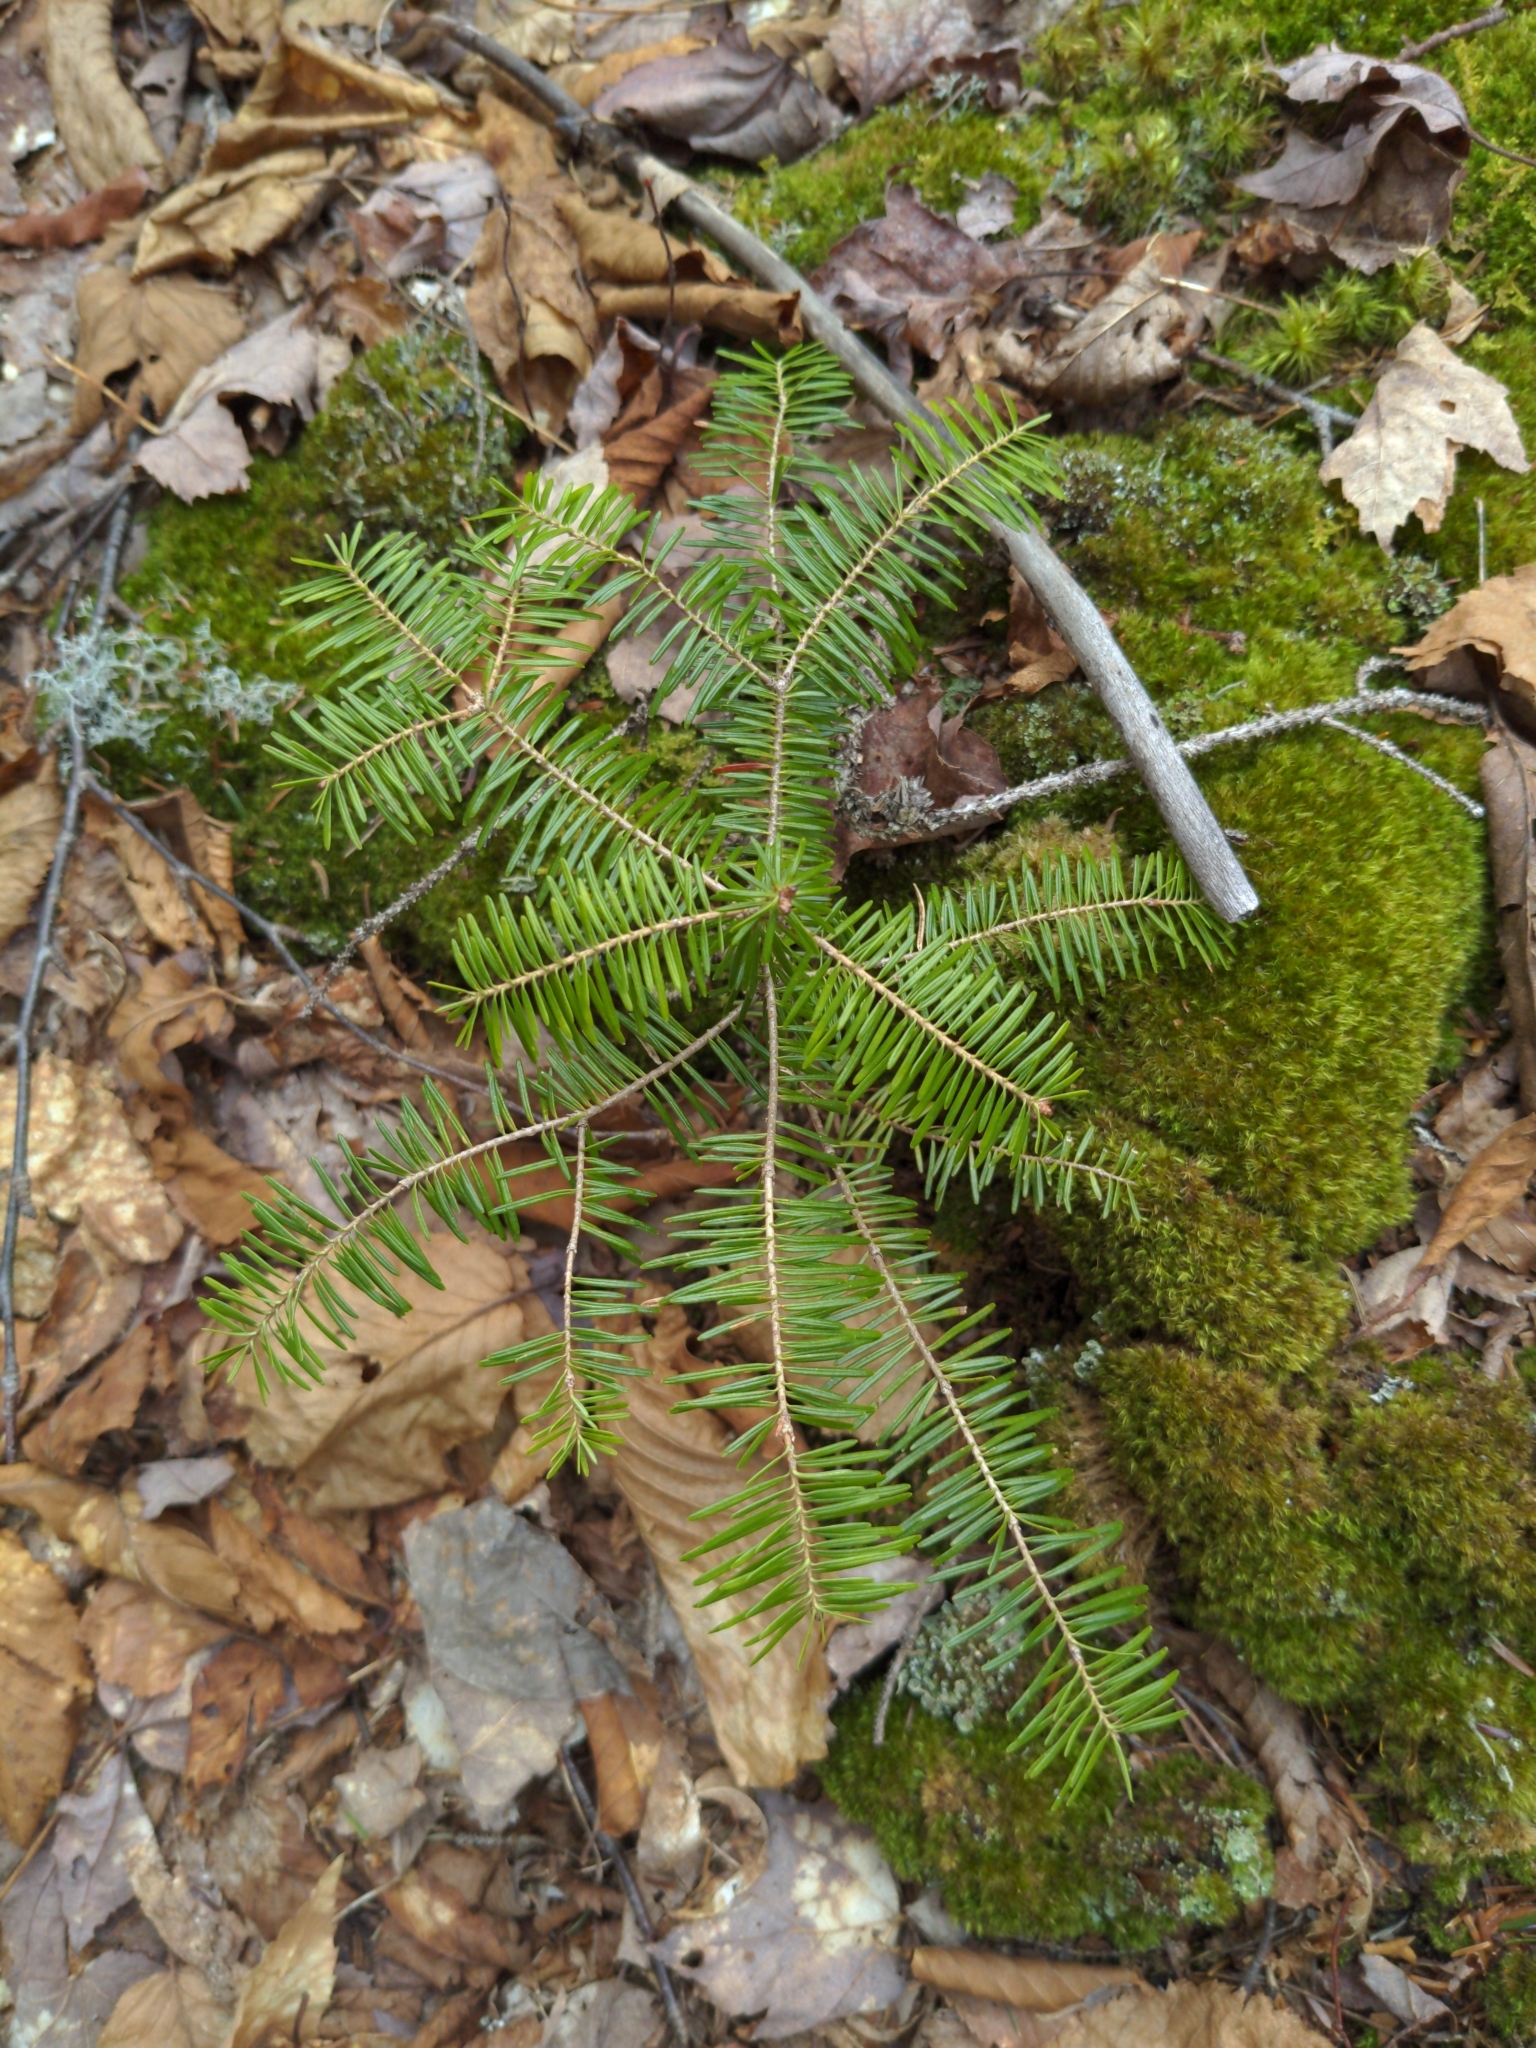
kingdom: Plantae
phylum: Tracheophyta
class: Pinopsida
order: Pinales
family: Pinaceae
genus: Abies
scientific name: Abies balsamea
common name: Balsam fir
